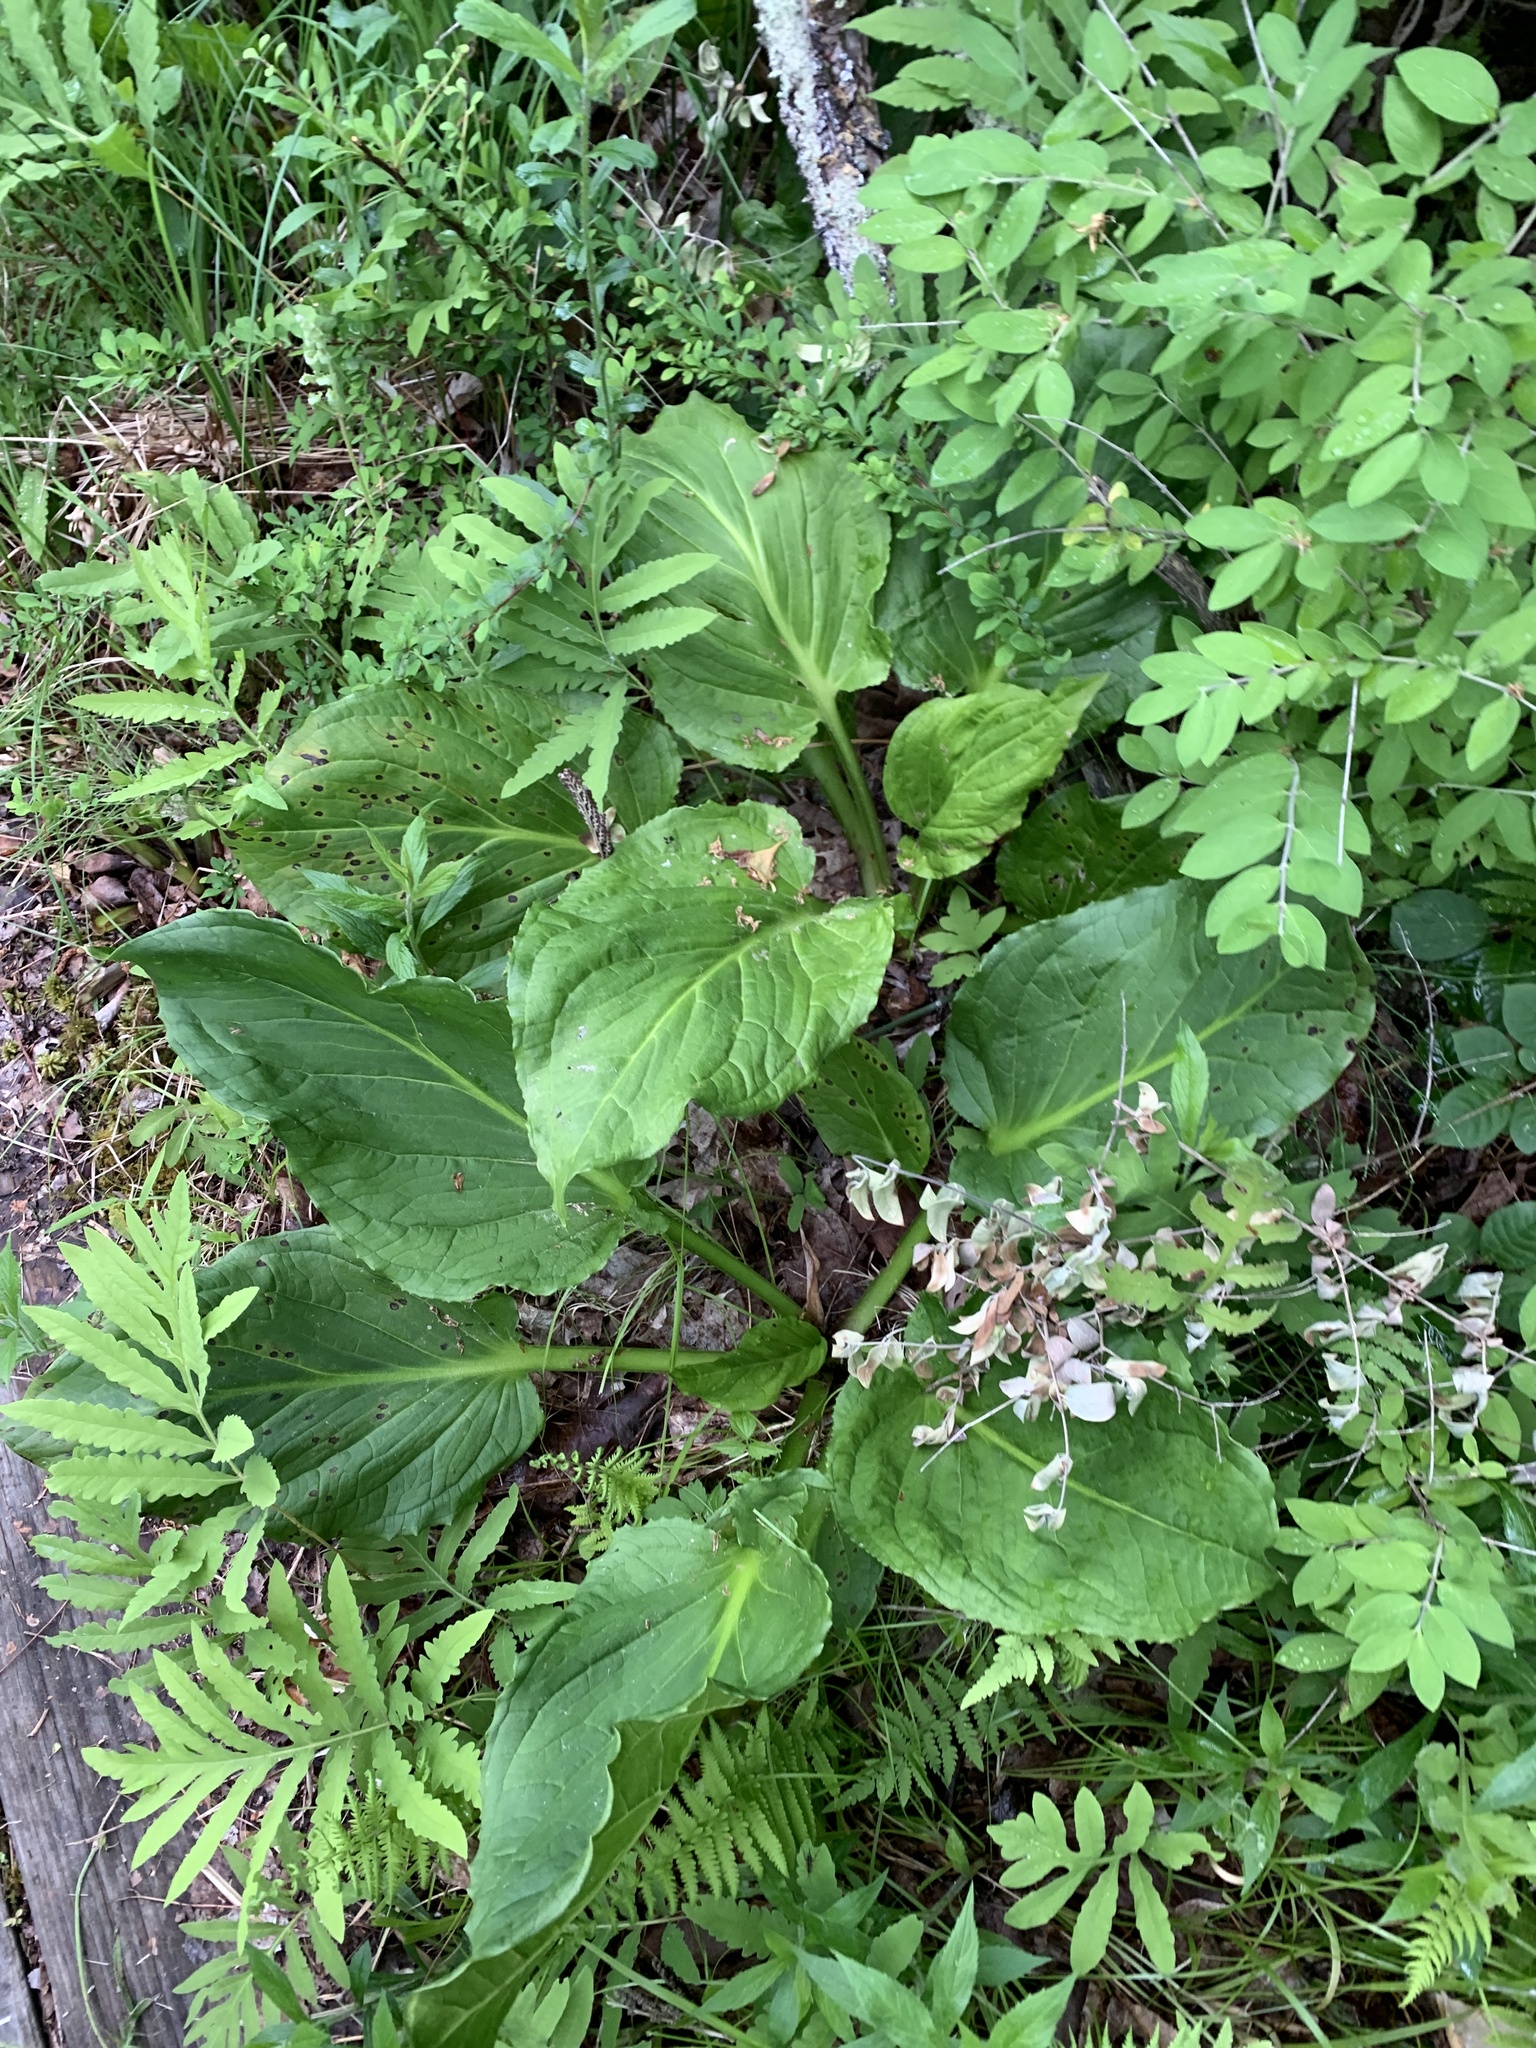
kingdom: Plantae
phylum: Tracheophyta
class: Liliopsida
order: Alismatales
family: Araceae
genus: Symplocarpus
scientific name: Symplocarpus foetidus
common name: Eastern skunk cabbage
